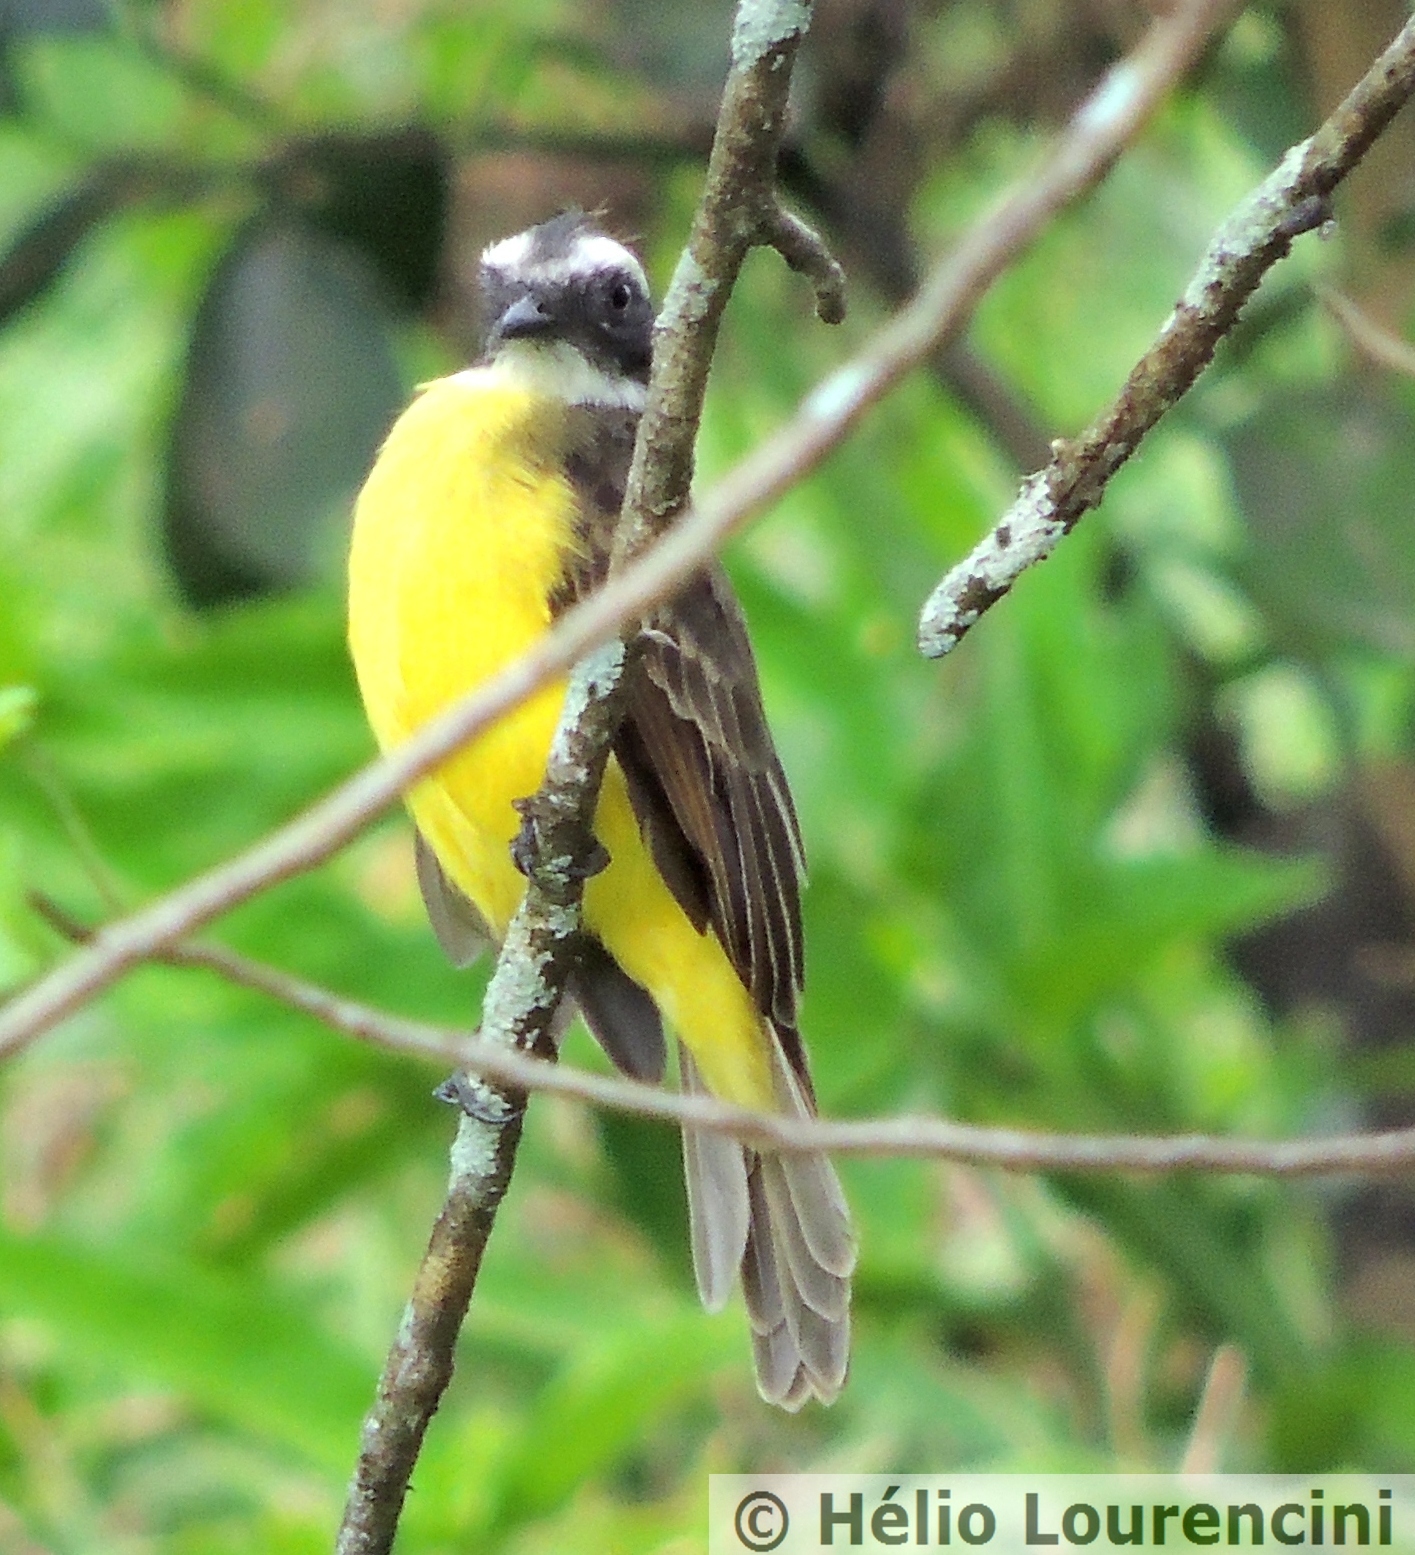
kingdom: Animalia
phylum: Chordata
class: Aves
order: Passeriformes
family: Tyrannidae
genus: Myiozetetes
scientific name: Myiozetetes similis
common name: Social flycatcher
